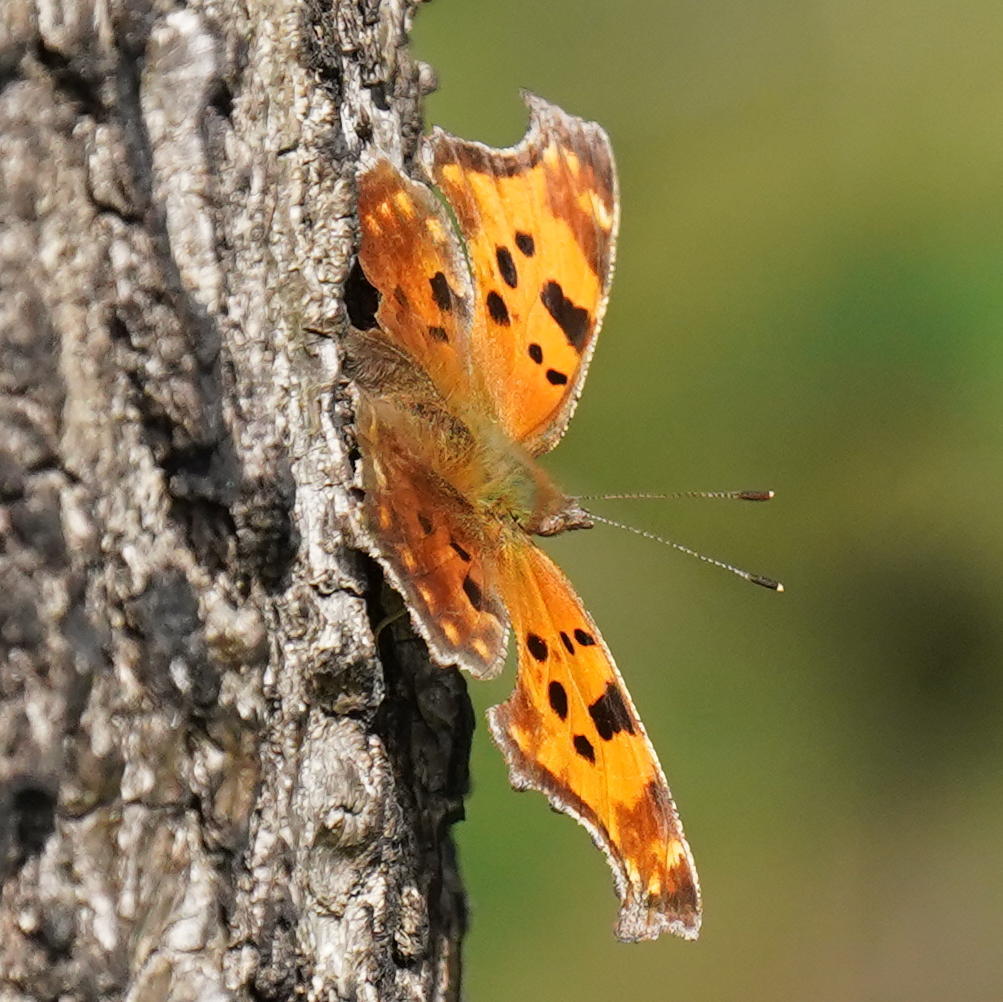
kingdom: Animalia
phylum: Arthropoda
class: Insecta
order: Lepidoptera
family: Nymphalidae
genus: Polygonia
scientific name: Polygonia comma
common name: Eastern comma
